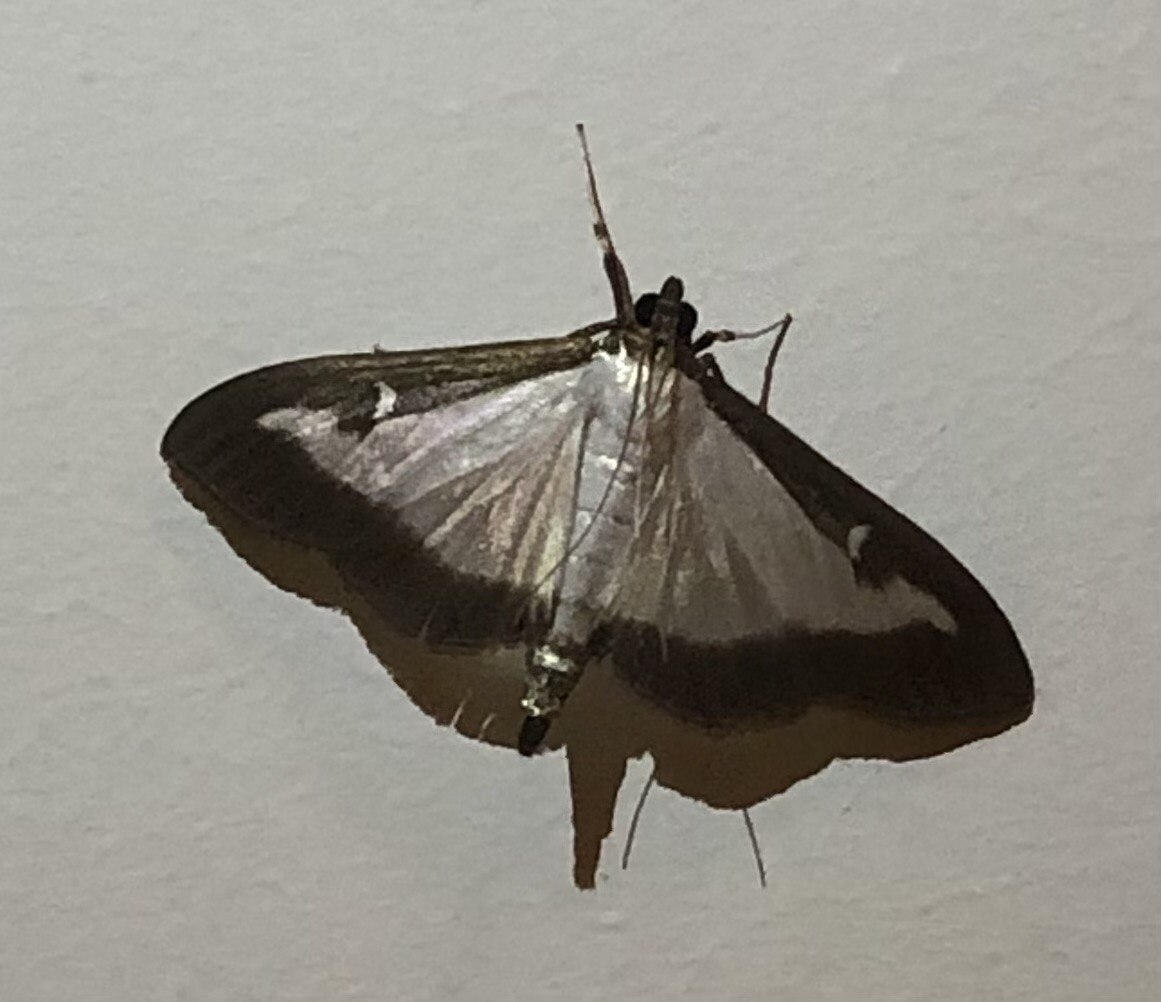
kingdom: Animalia
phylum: Arthropoda
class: Insecta
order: Lepidoptera
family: Crambidae
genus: Cydalima
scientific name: Cydalima perspectalis
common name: Box tree moth
